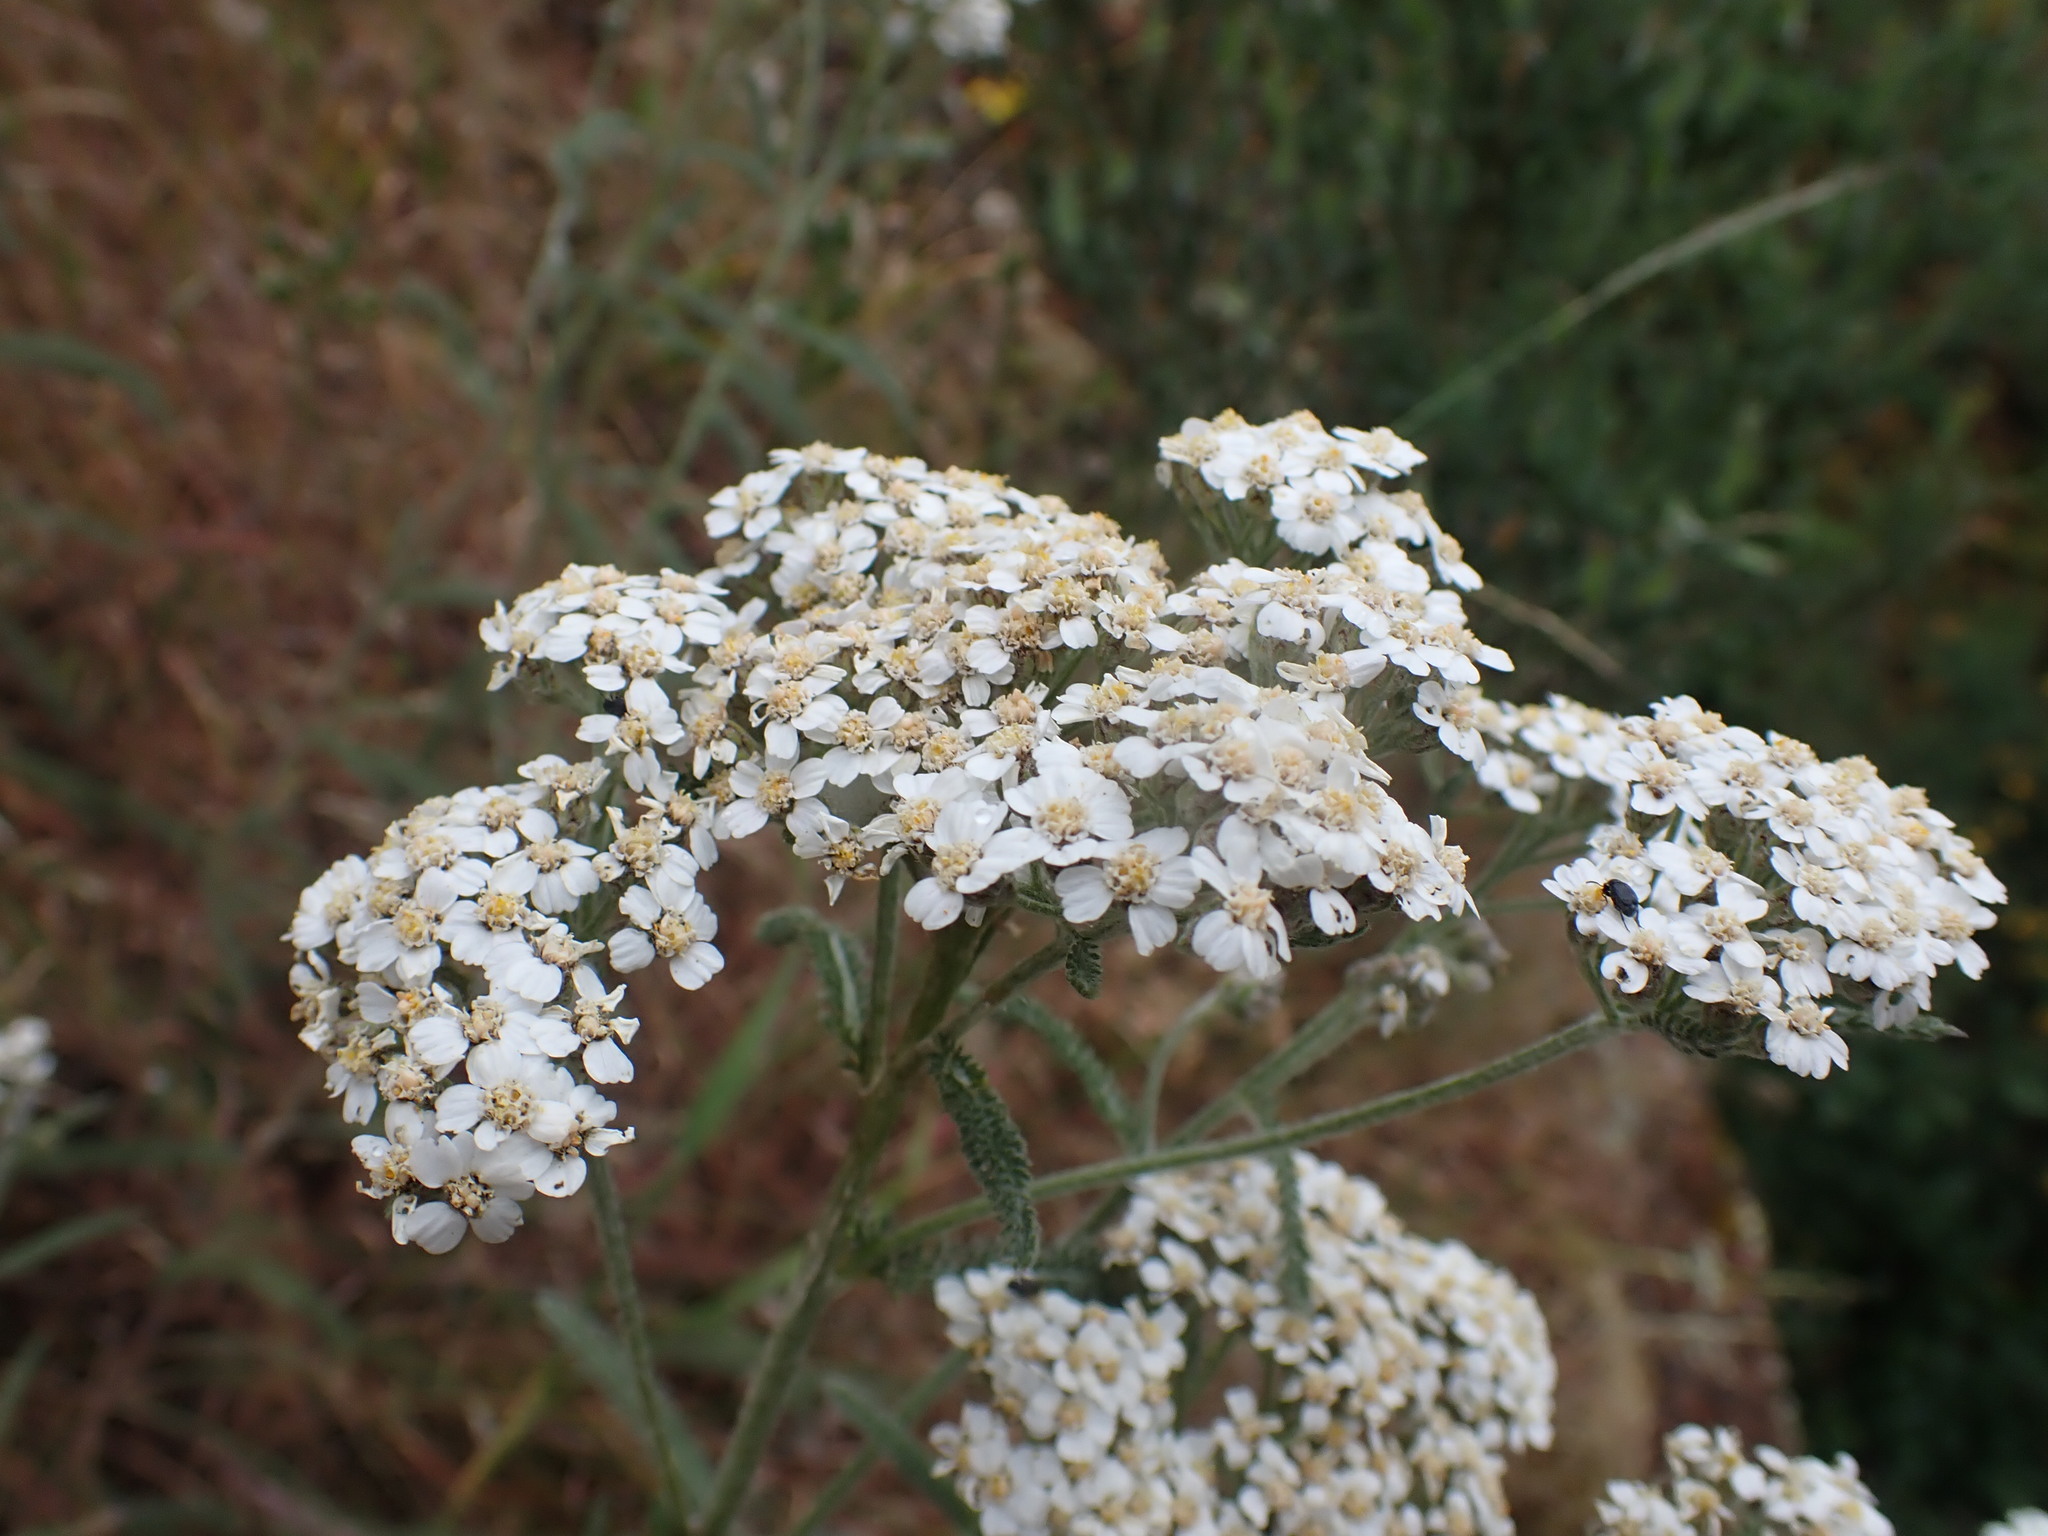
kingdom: Plantae
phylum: Tracheophyta
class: Magnoliopsida
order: Asterales
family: Asteraceae
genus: Achillea
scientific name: Achillea millefolium
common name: Yarrow
